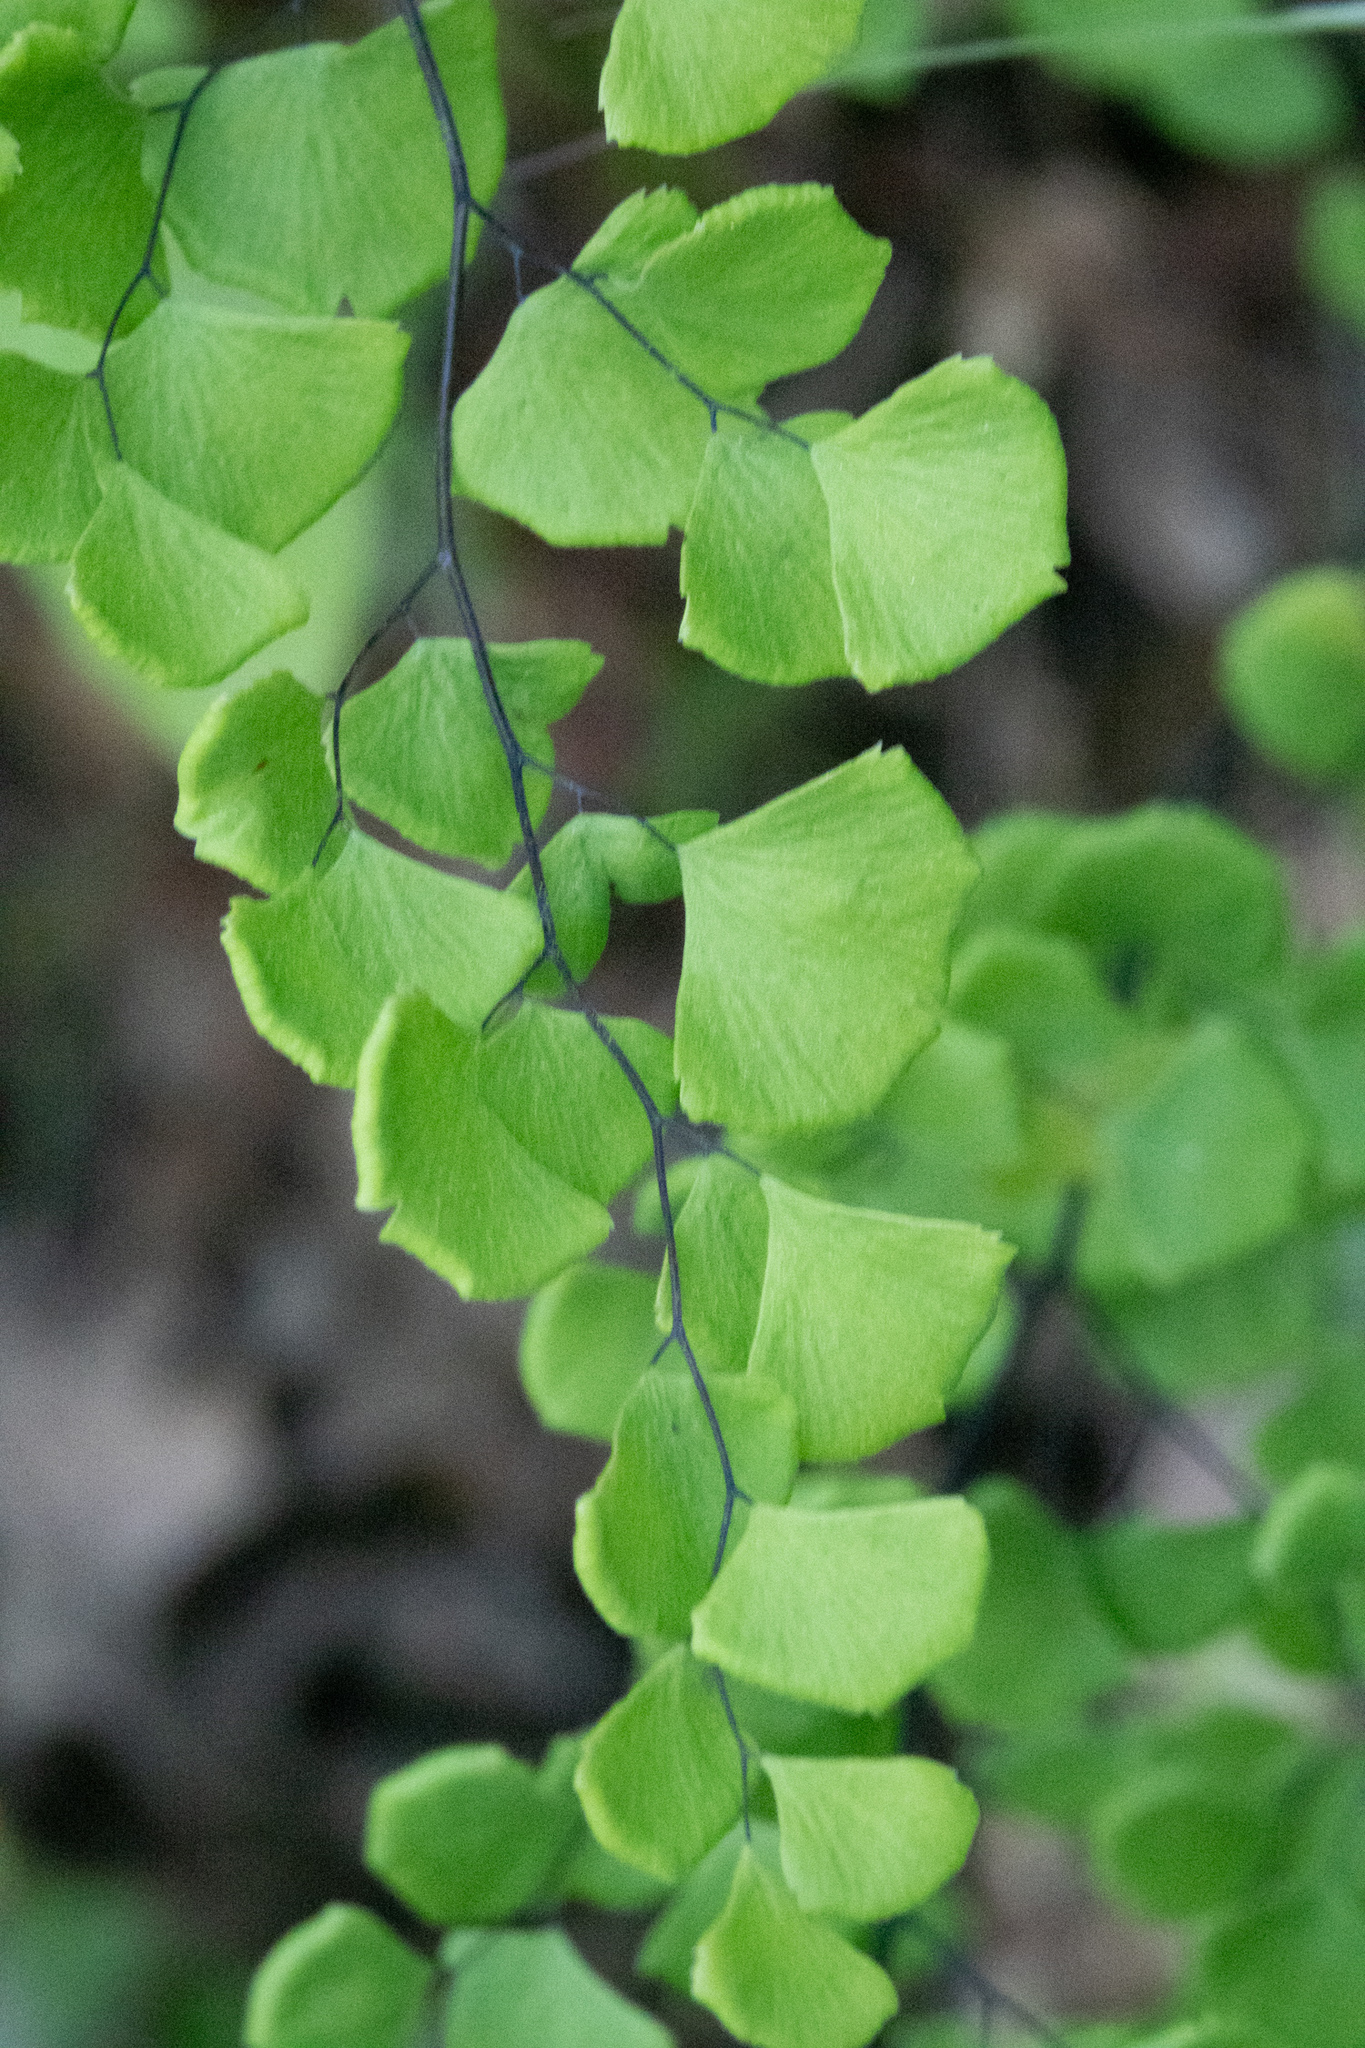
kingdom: Plantae
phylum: Tracheophyta
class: Polypodiopsida
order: Polypodiales
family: Pteridaceae
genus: Adiantum
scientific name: Adiantum jordanii
